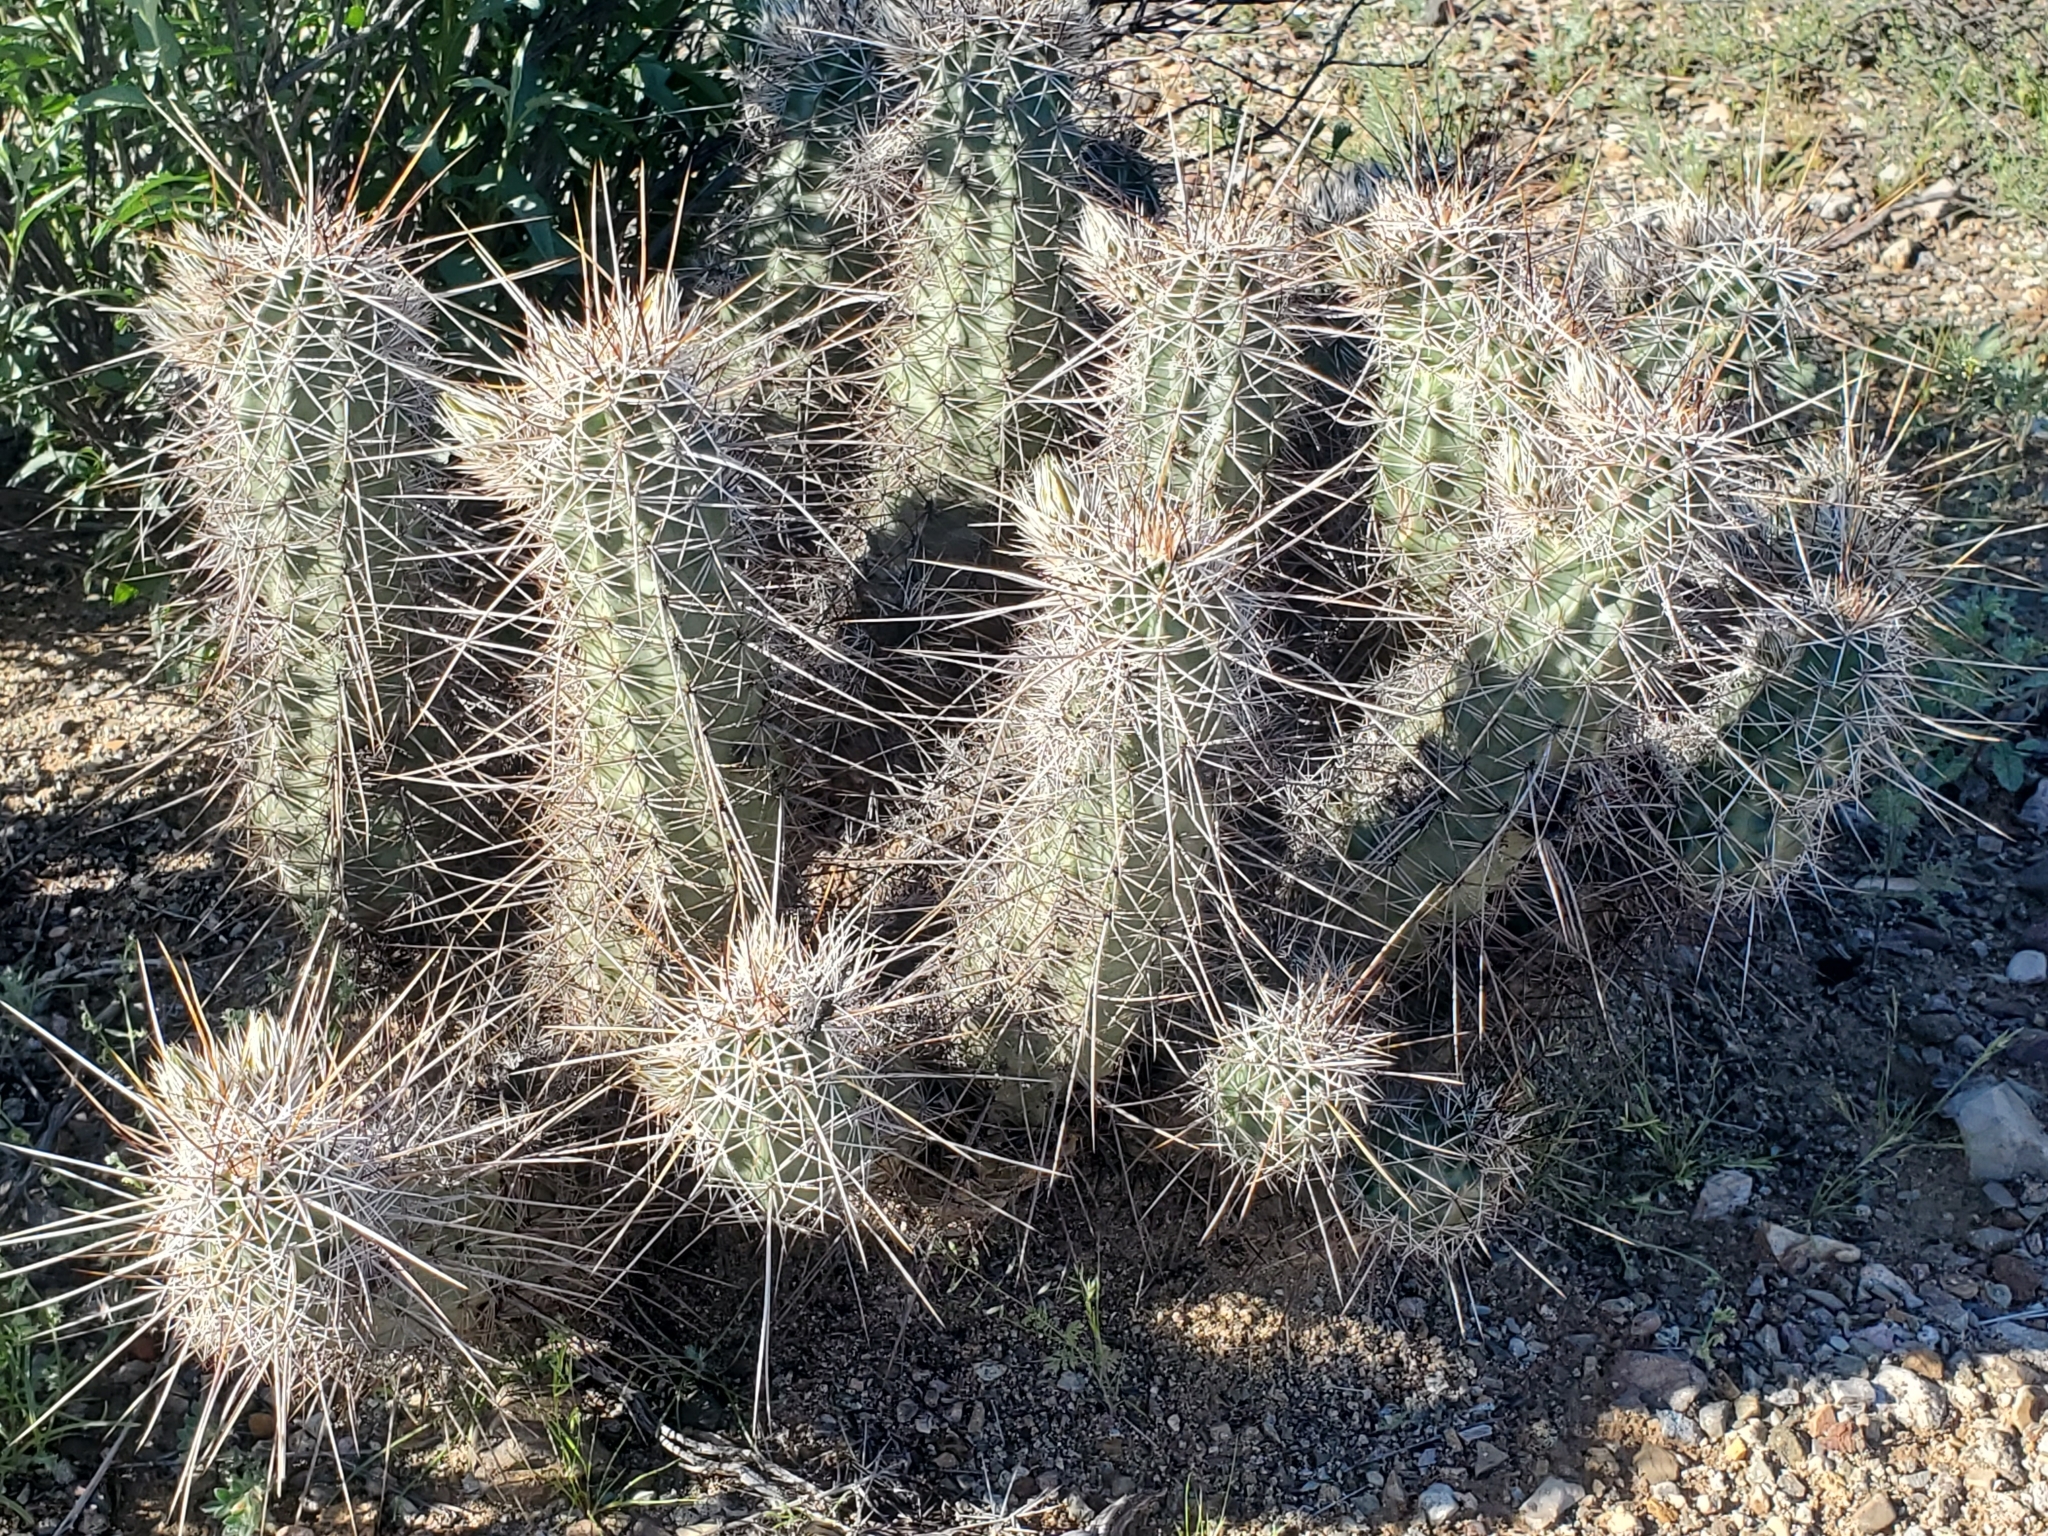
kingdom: Plantae
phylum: Tracheophyta
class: Magnoliopsida
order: Caryophyllales
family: Cactaceae
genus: Echinocereus
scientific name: Echinocereus fasciculatus
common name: Bundle hedgehog
